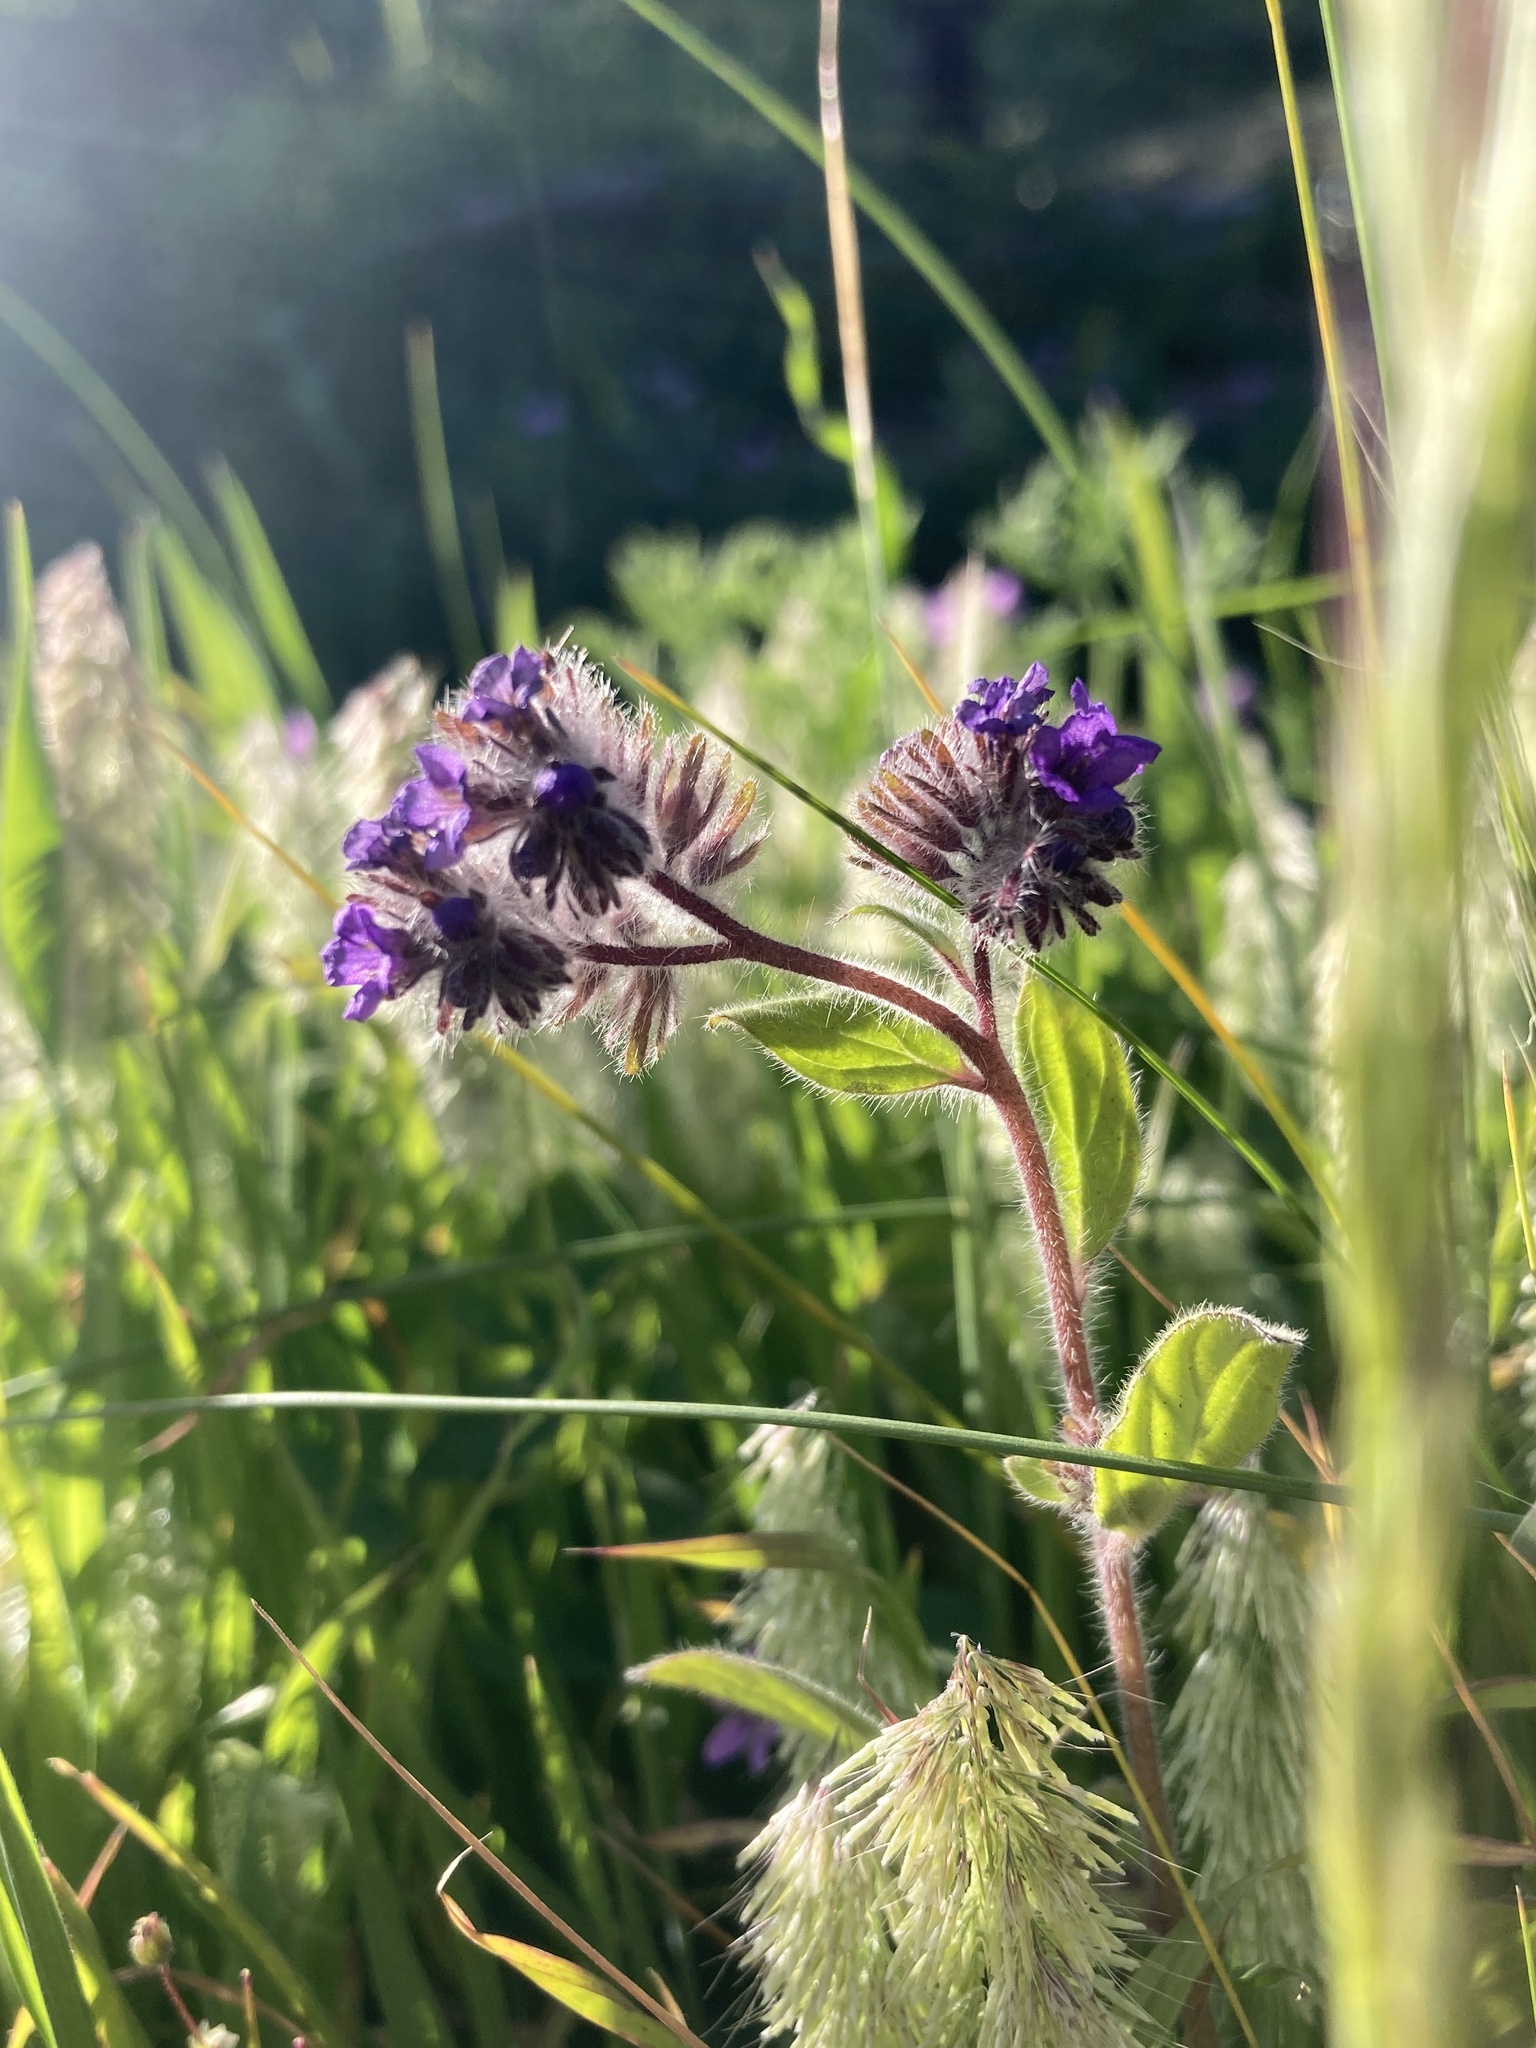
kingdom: Plantae
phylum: Tracheophyta
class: Magnoliopsida
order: Boraginales
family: Hydrophyllaceae
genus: Phacelia
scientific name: Phacelia brachyantha
